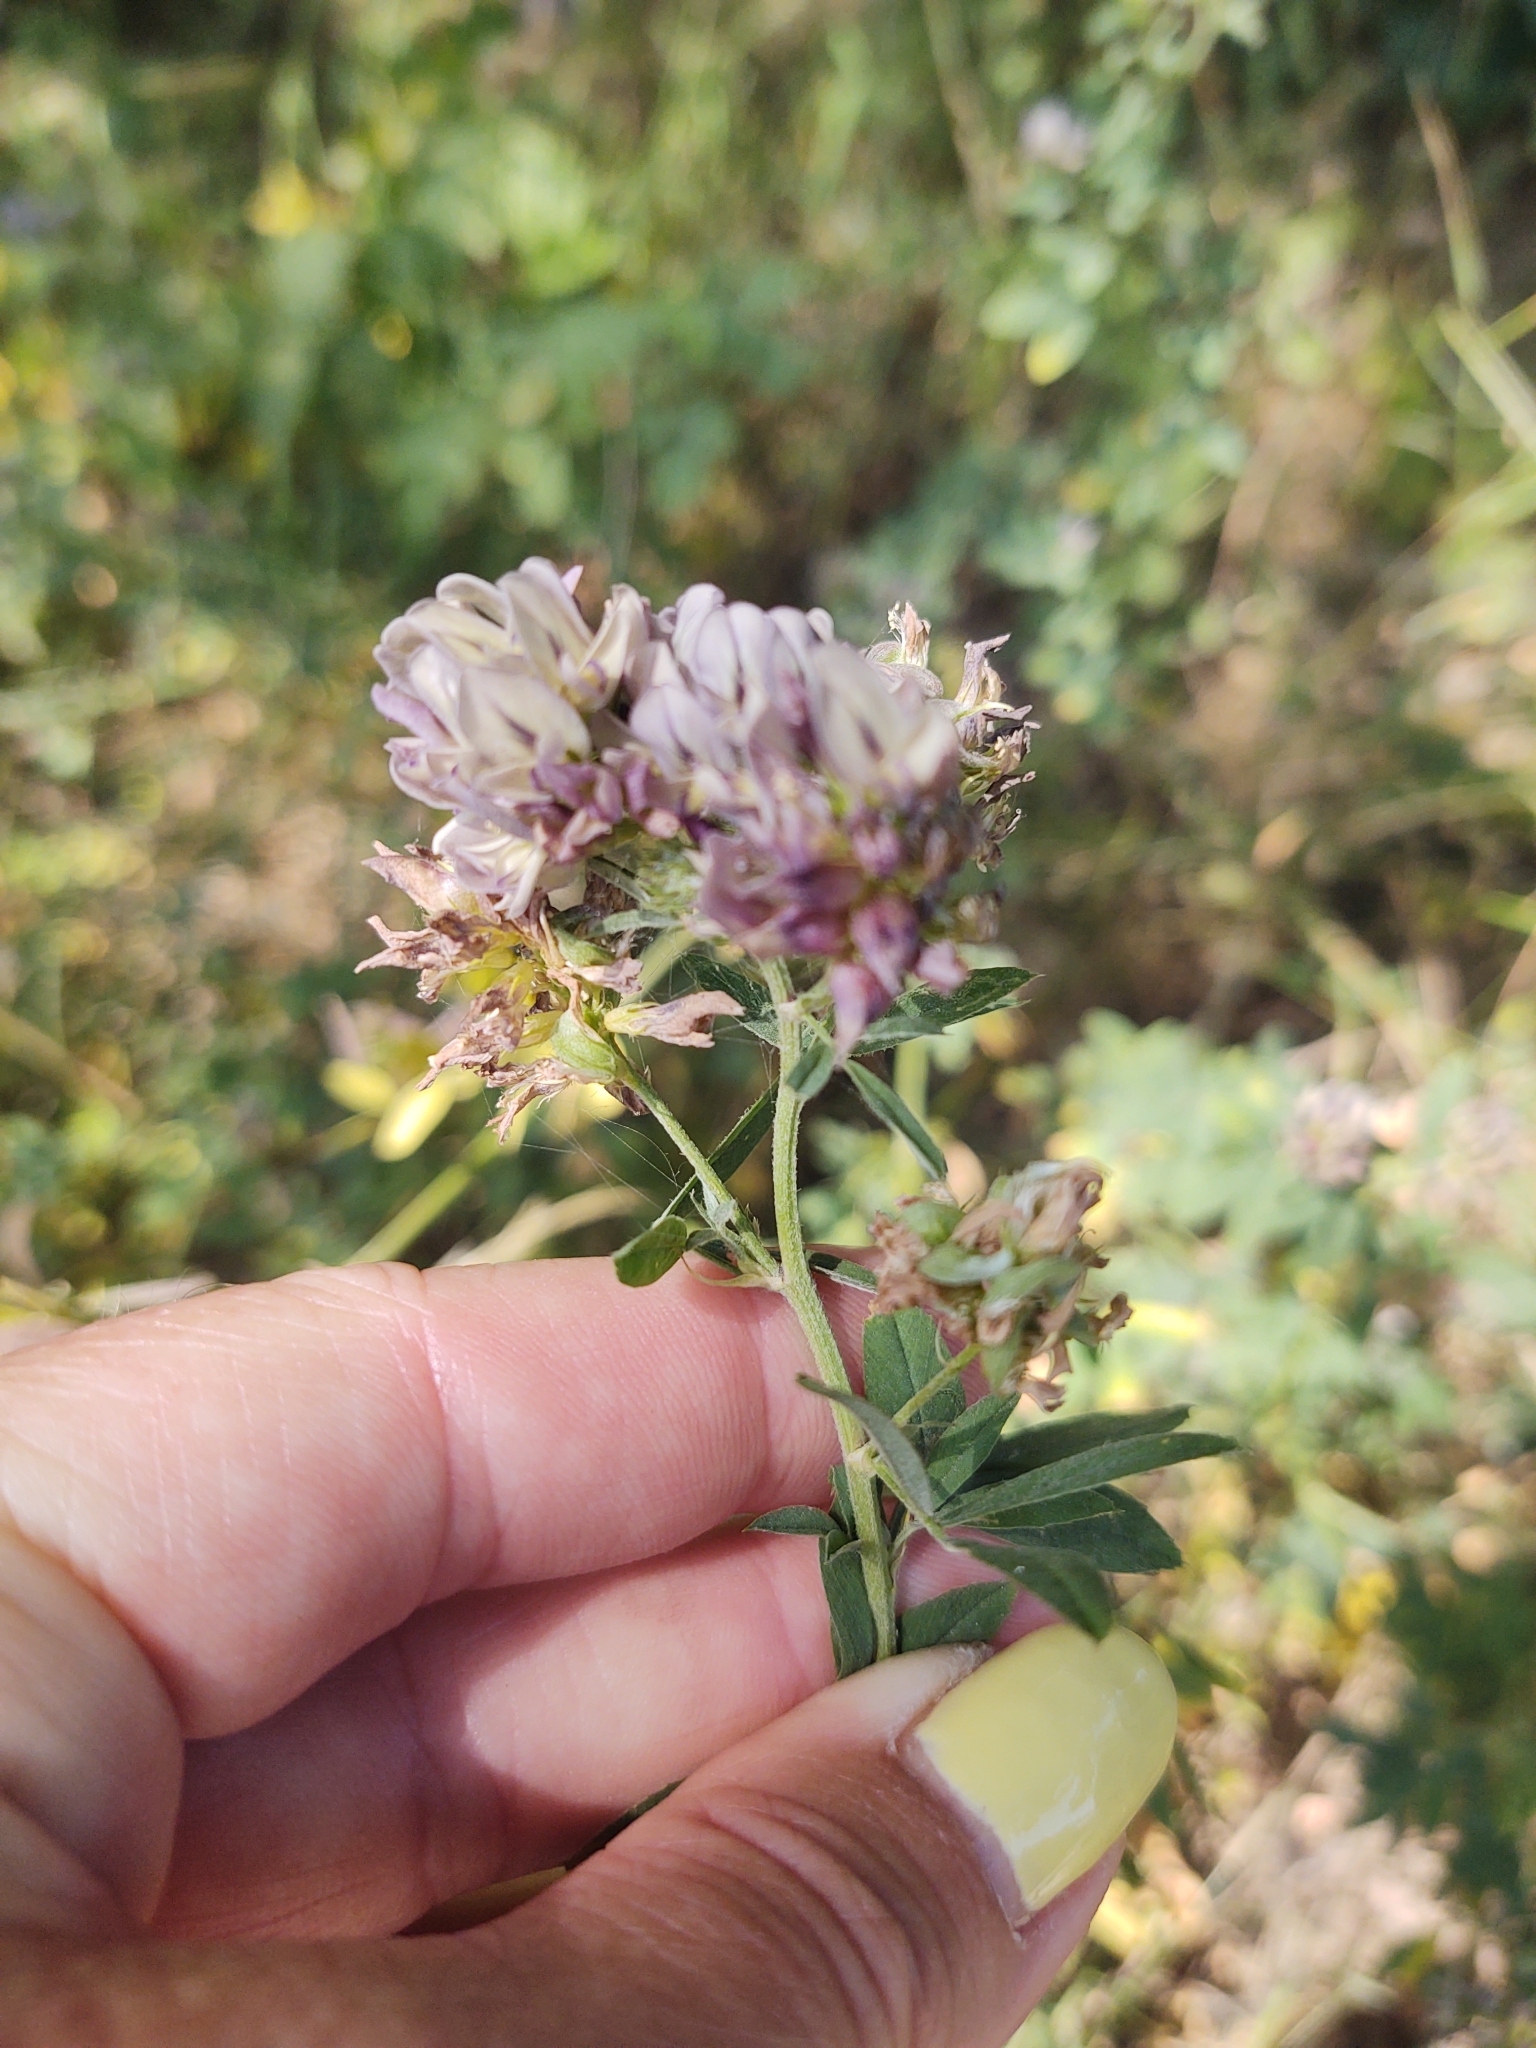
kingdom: Plantae
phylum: Tracheophyta
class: Magnoliopsida
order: Fabales
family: Fabaceae
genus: Medicago
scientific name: Medicago varia
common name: Sand lucerne
